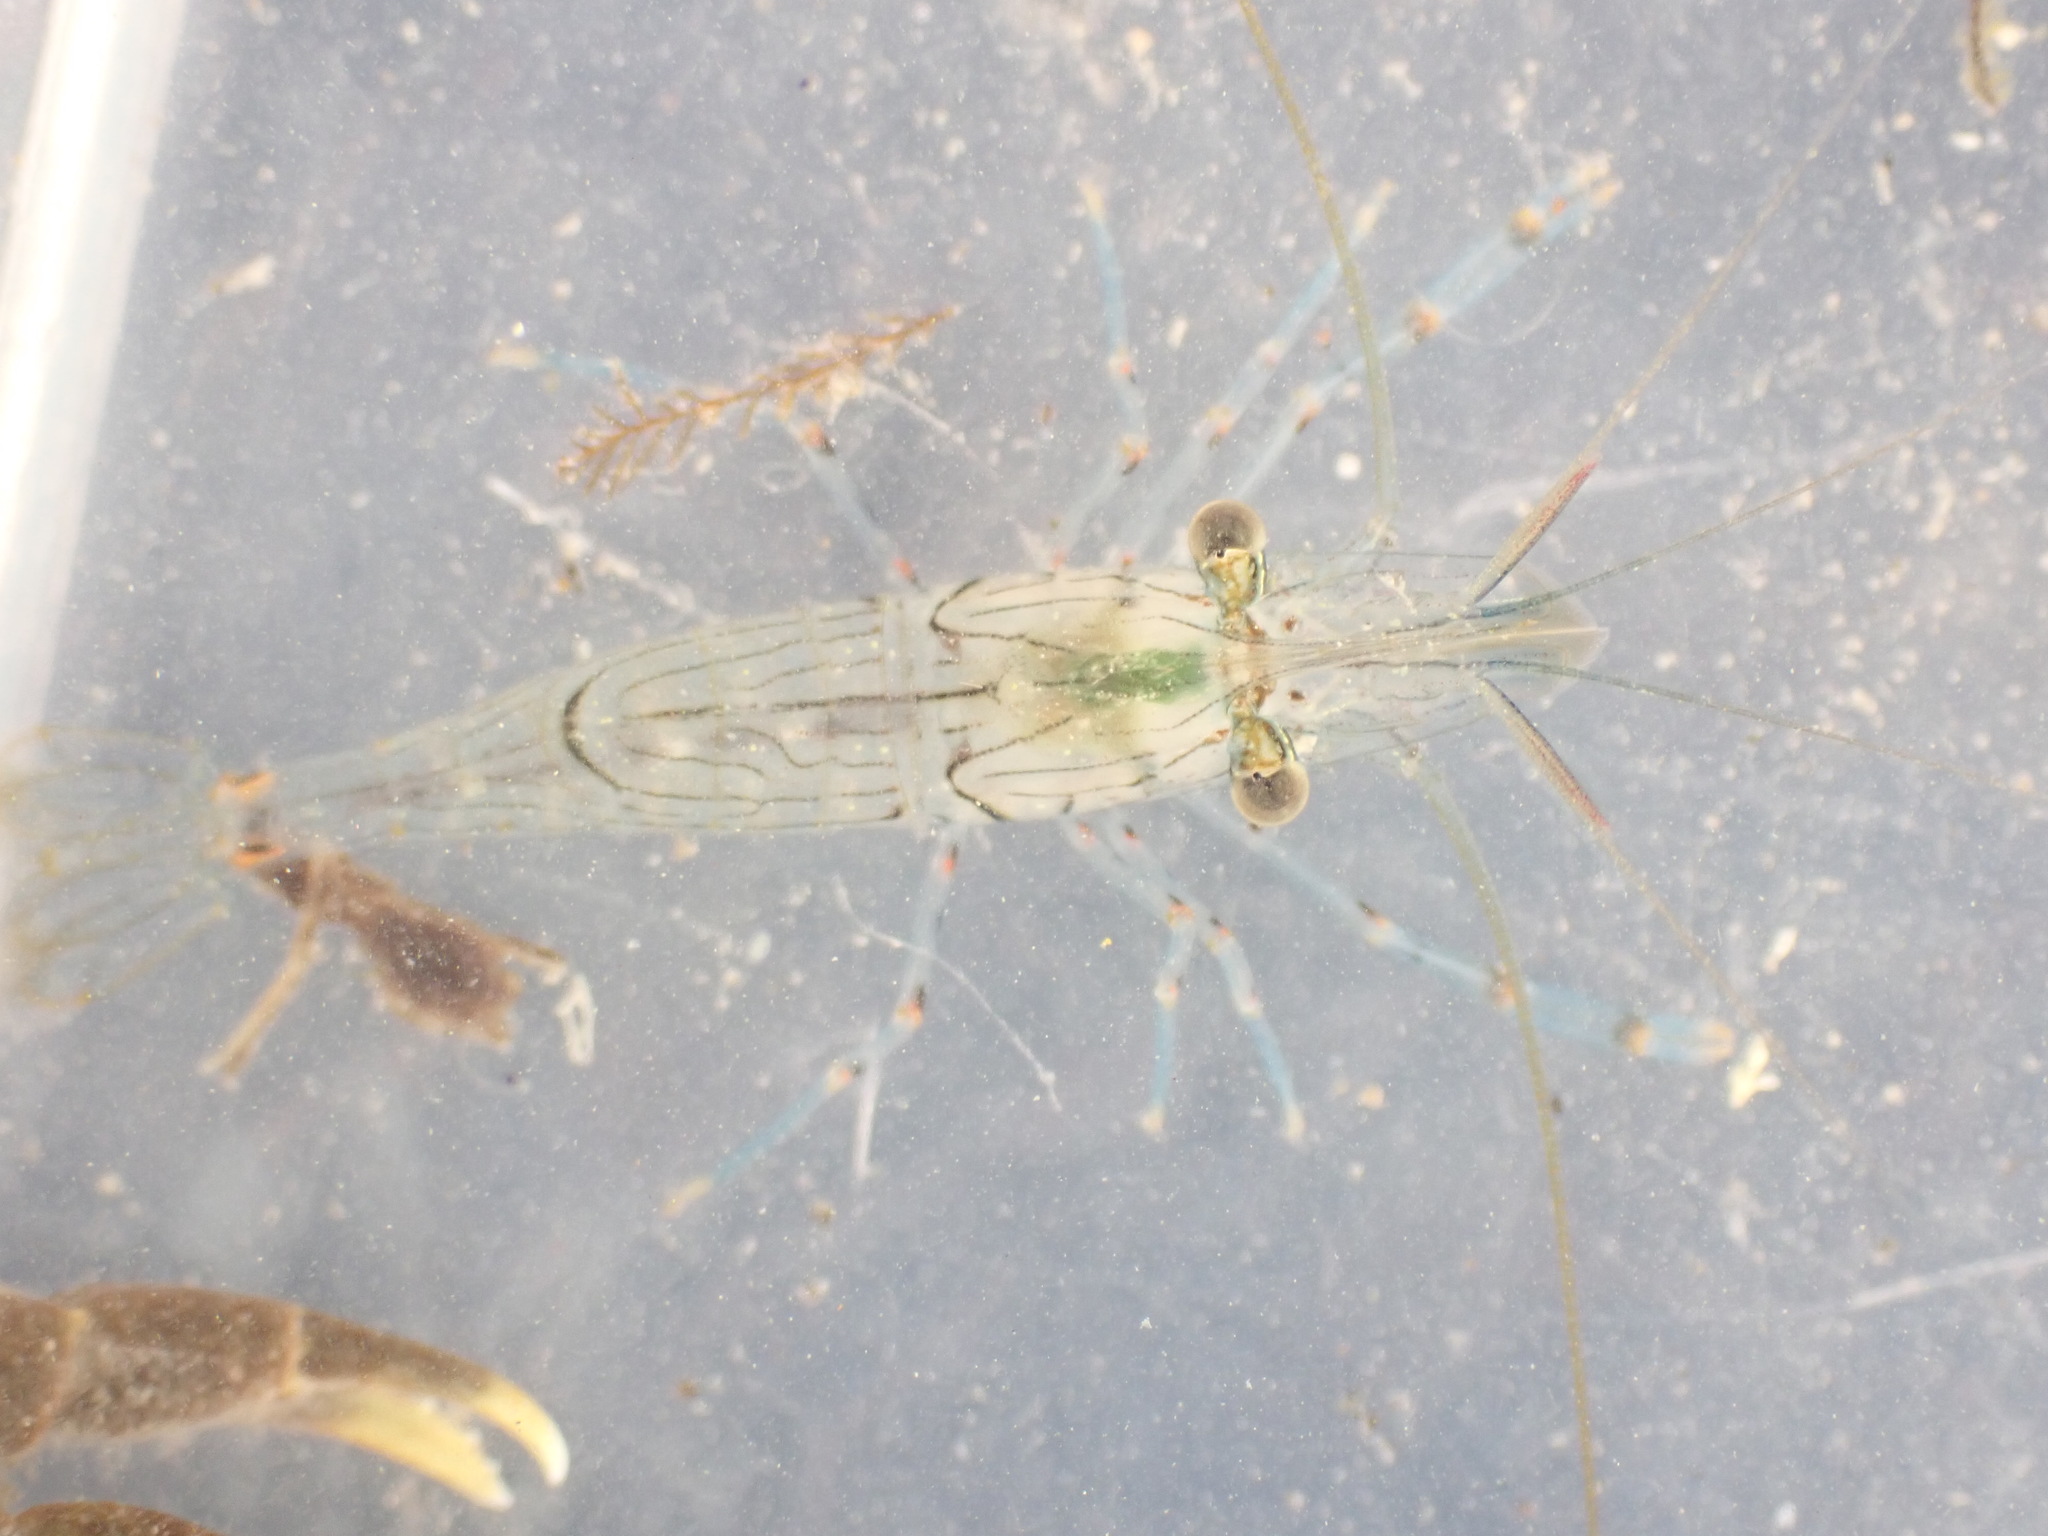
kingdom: Animalia
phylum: Arthropoda
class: Malacostraca
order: Decapoda
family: Palaemonidae
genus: Palaemon
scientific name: Palaemon affinis
